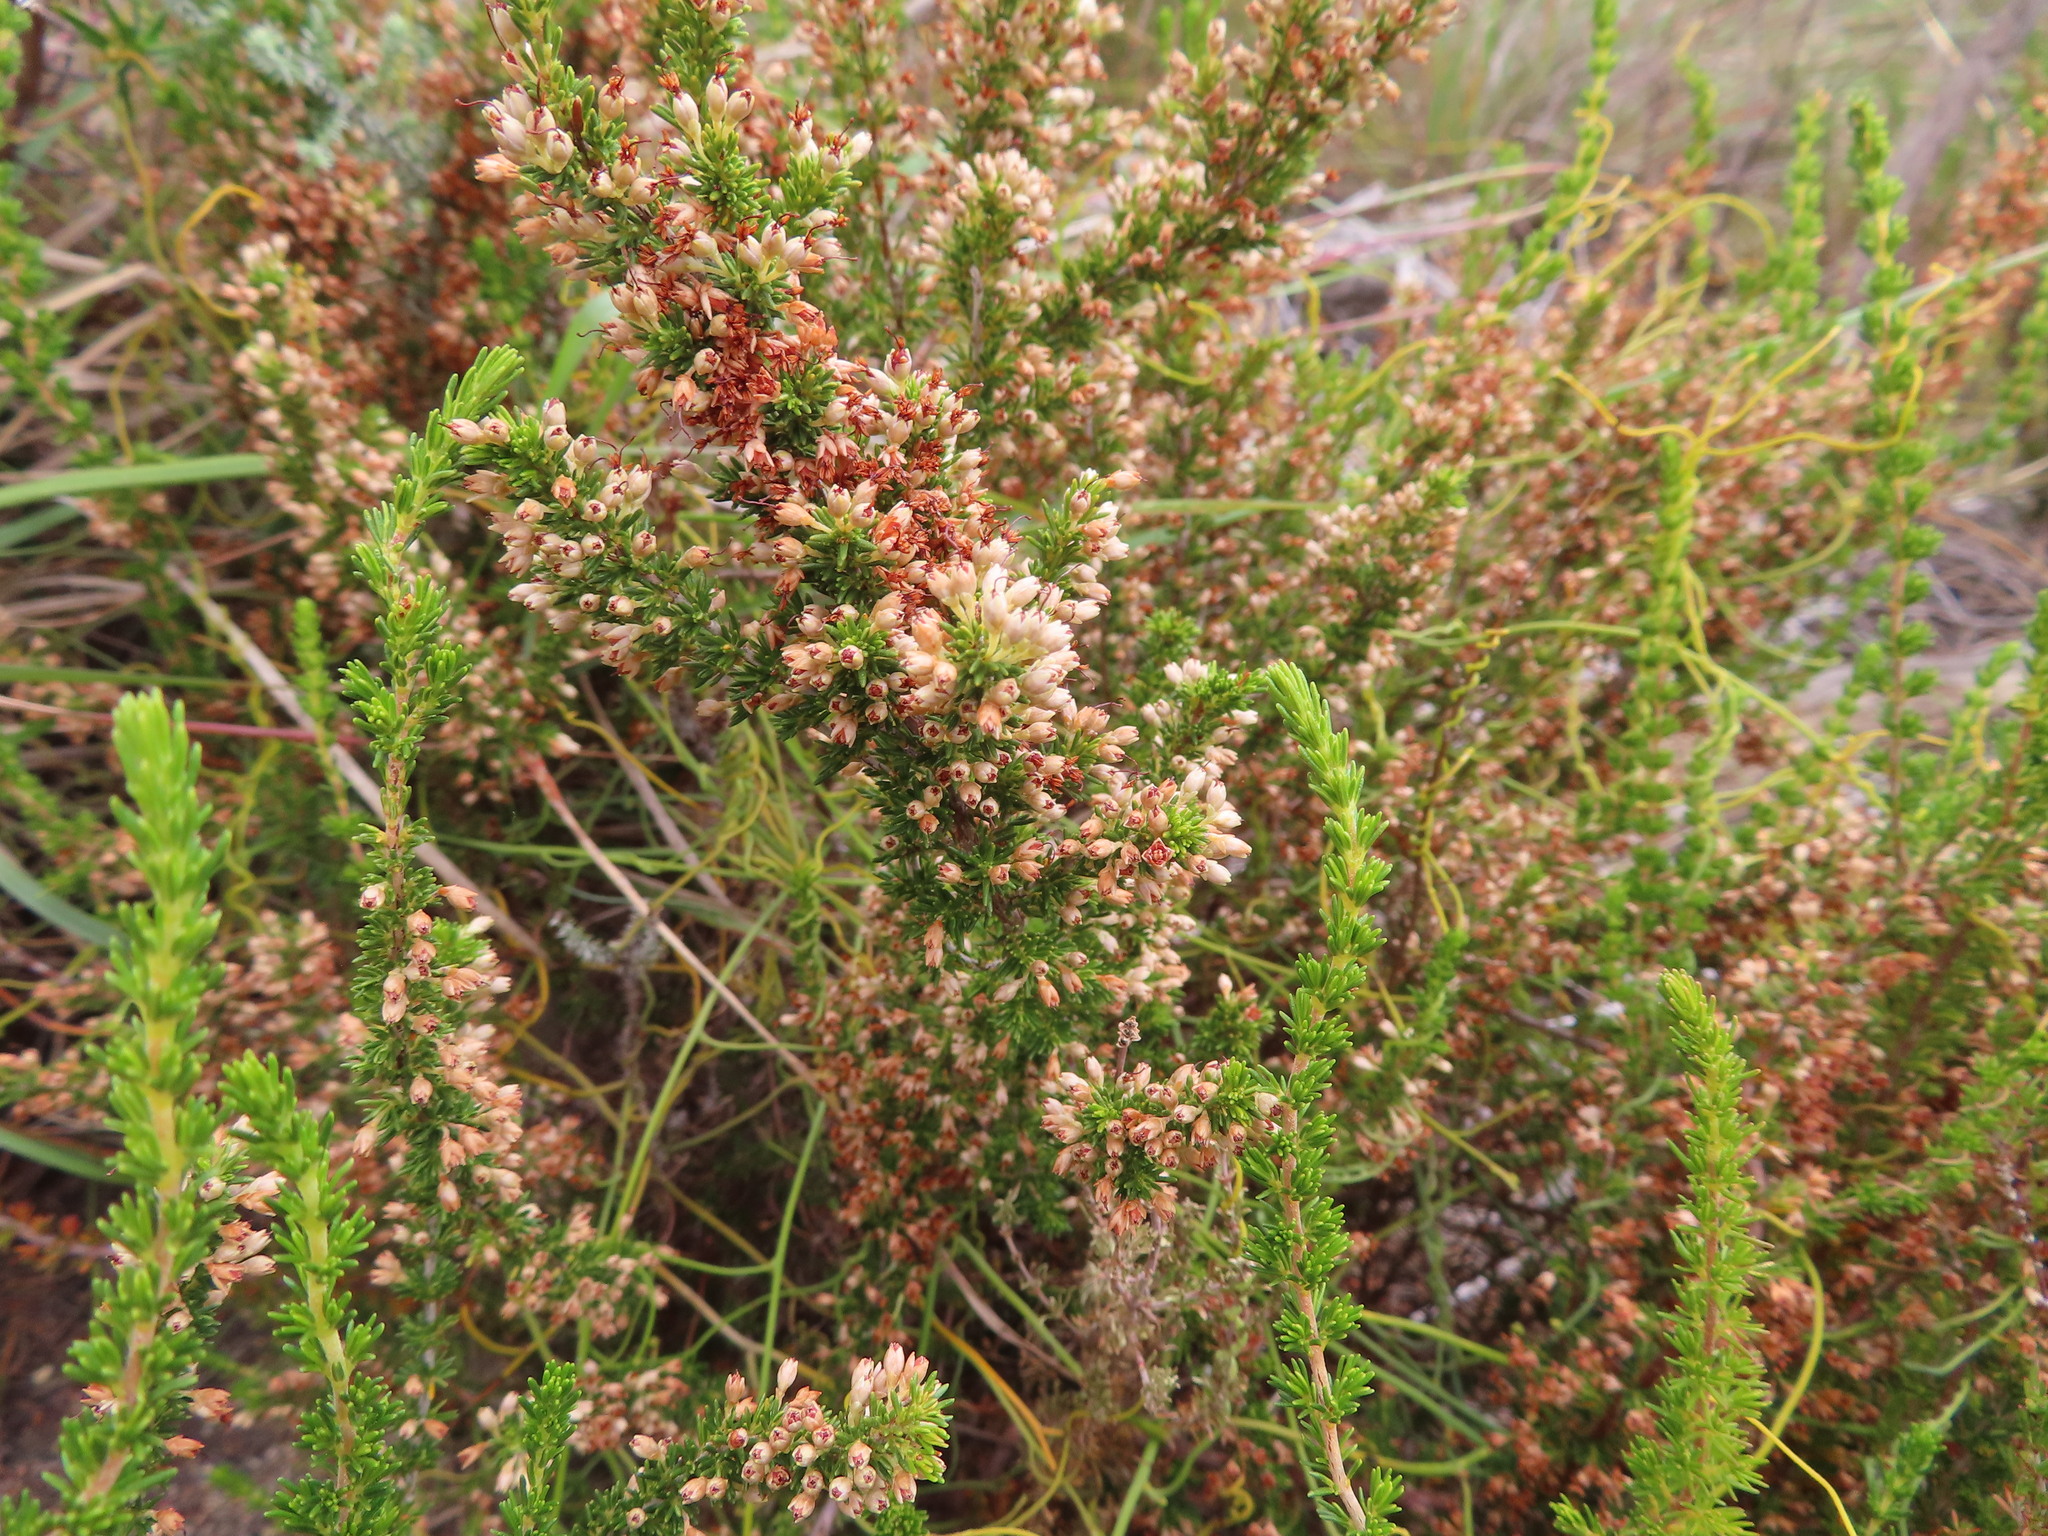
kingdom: Plantae
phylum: Tracheophyta
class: Magnoliopsida
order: Ericales
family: Ericaceae
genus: Erica
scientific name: Erica imbricata
